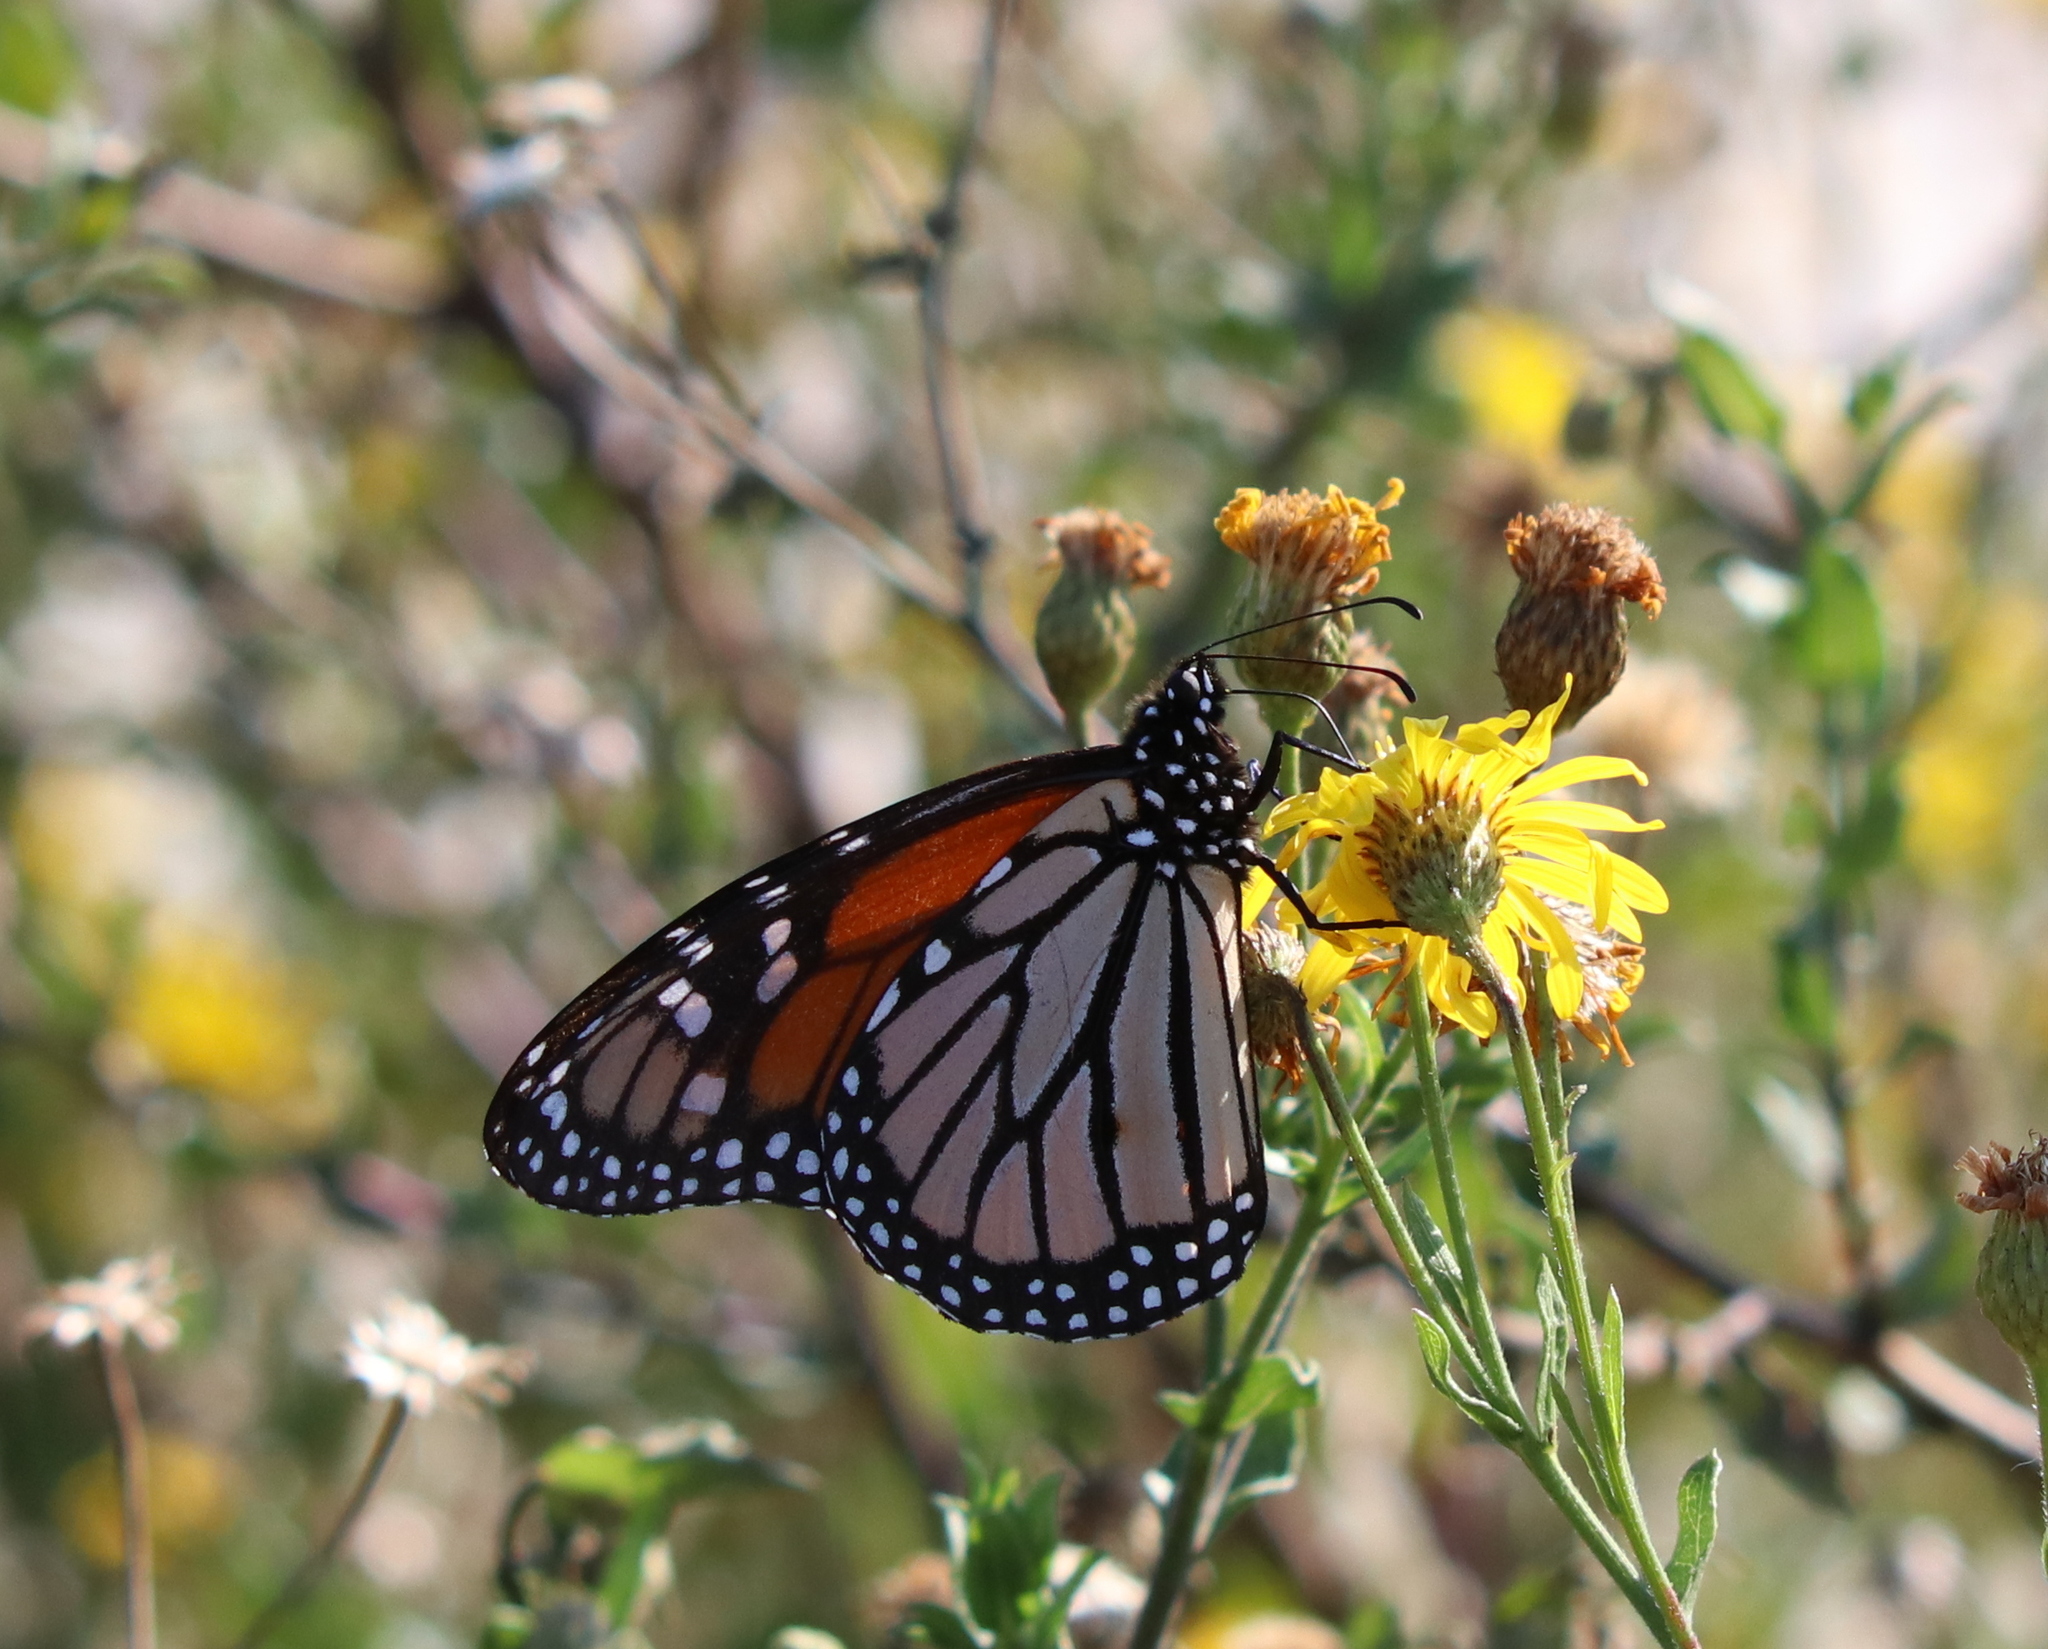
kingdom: Animalia
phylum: Arthropoda
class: Insecta
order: Lepidoptera
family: Nymphalidae
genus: Danaus
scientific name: Danaus plexippus
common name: Monarch
